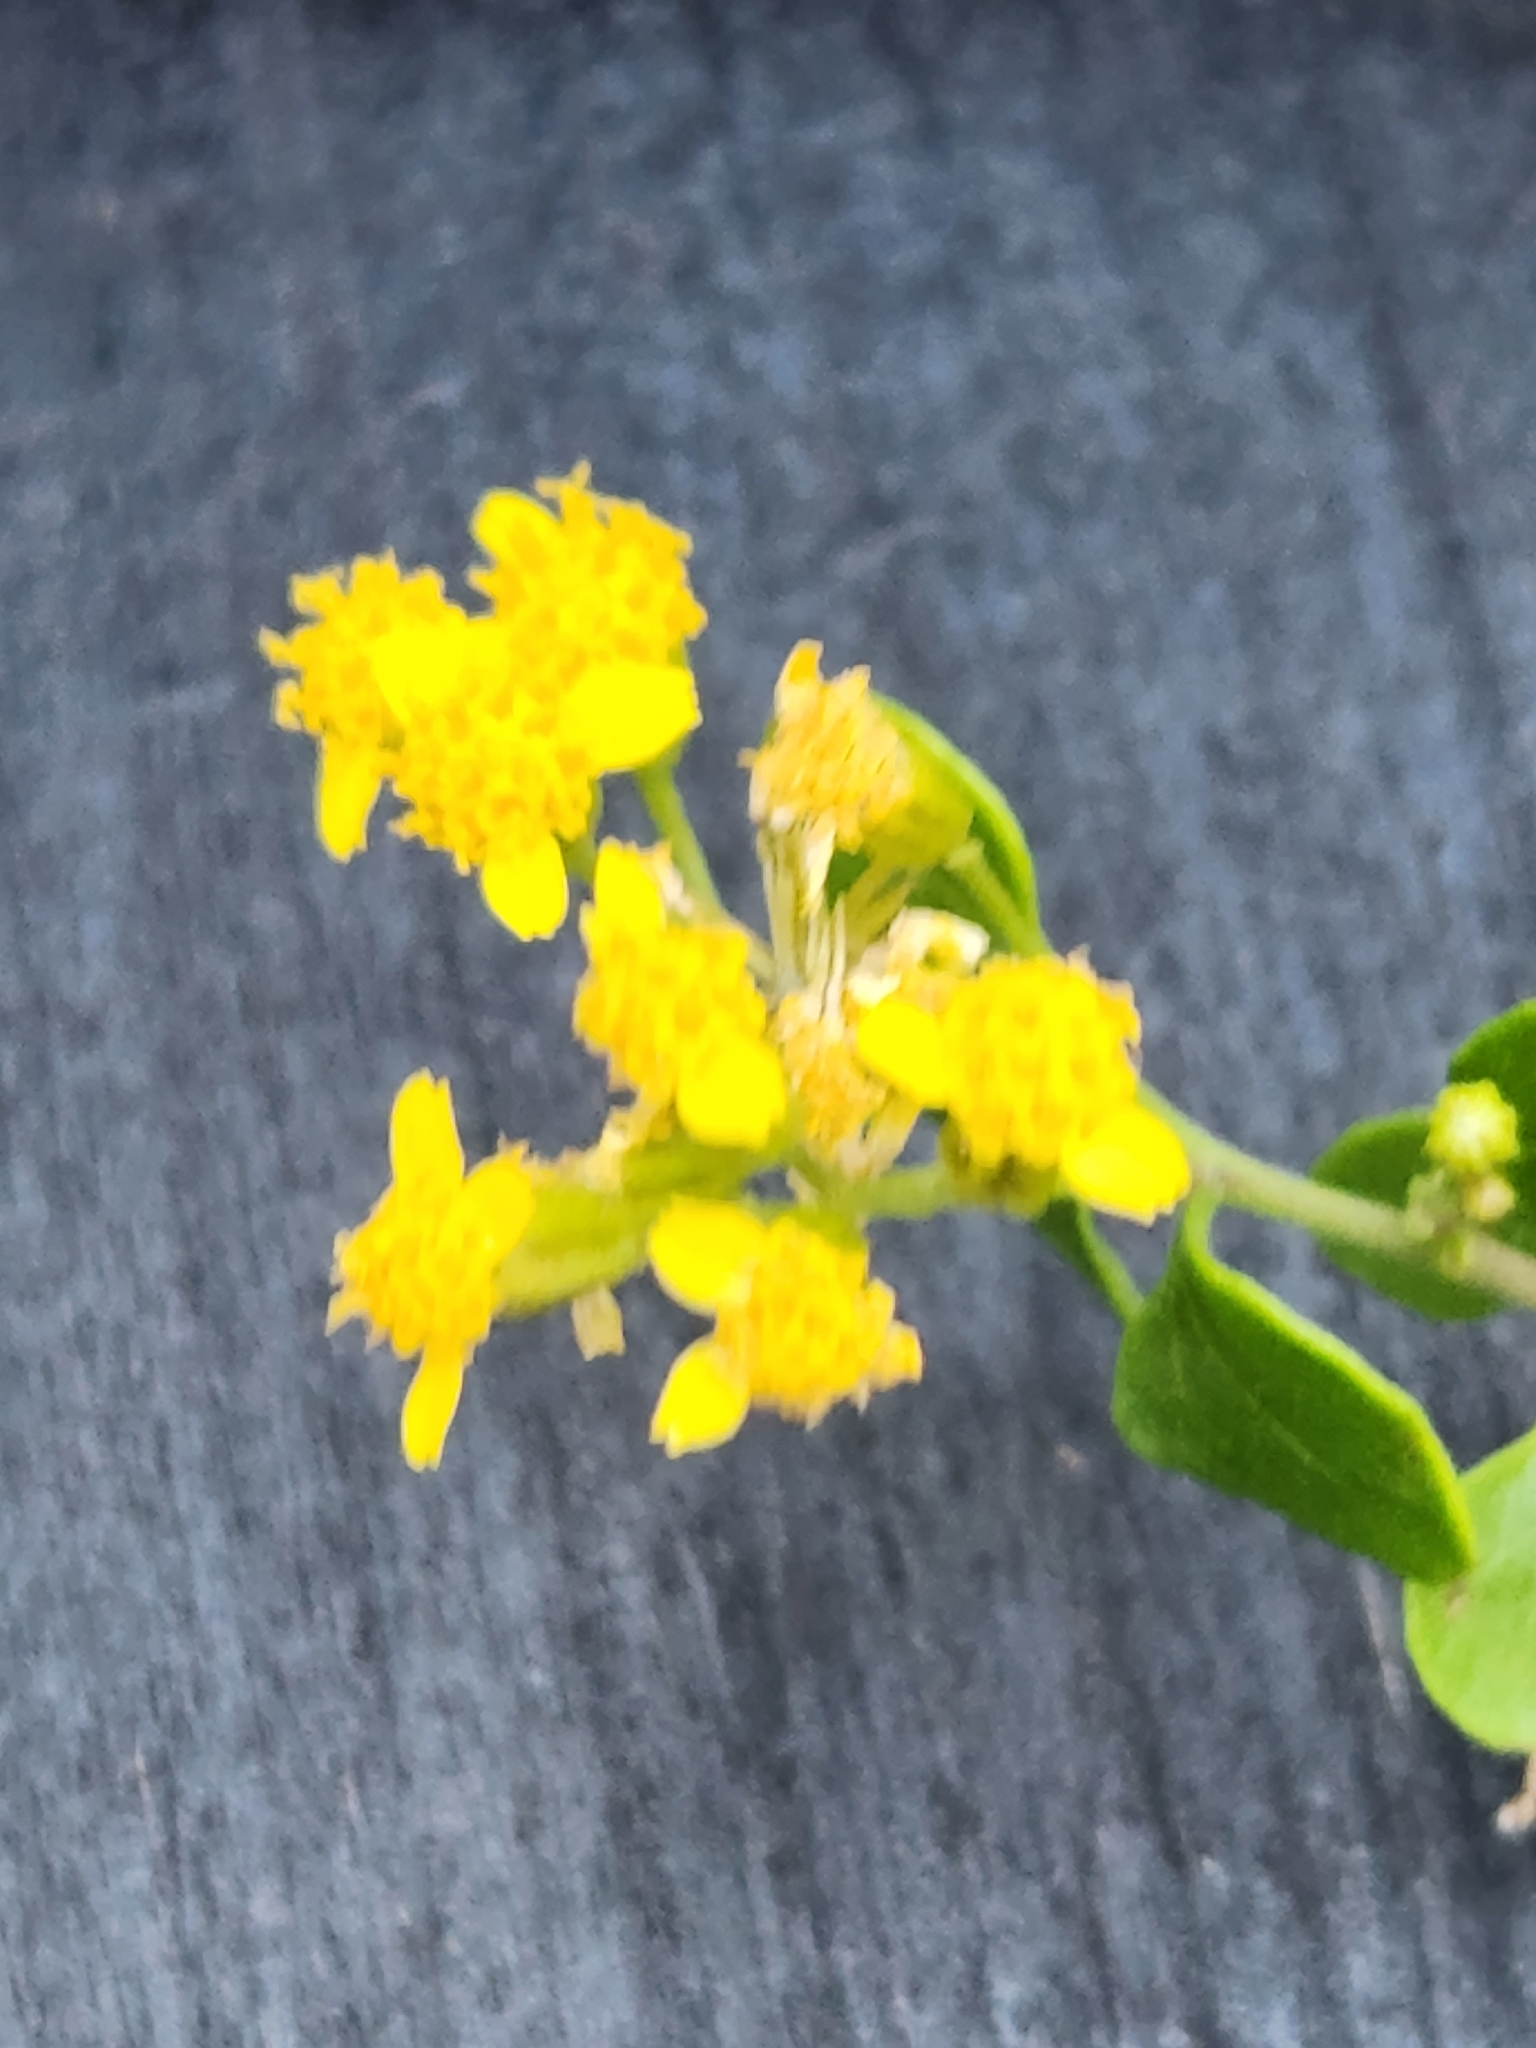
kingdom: Plantae
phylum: Tracheophyta
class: Magnoliopsida
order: Asterales
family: Asteraceae
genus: Laphamia
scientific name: Laphamia lindheimeri
